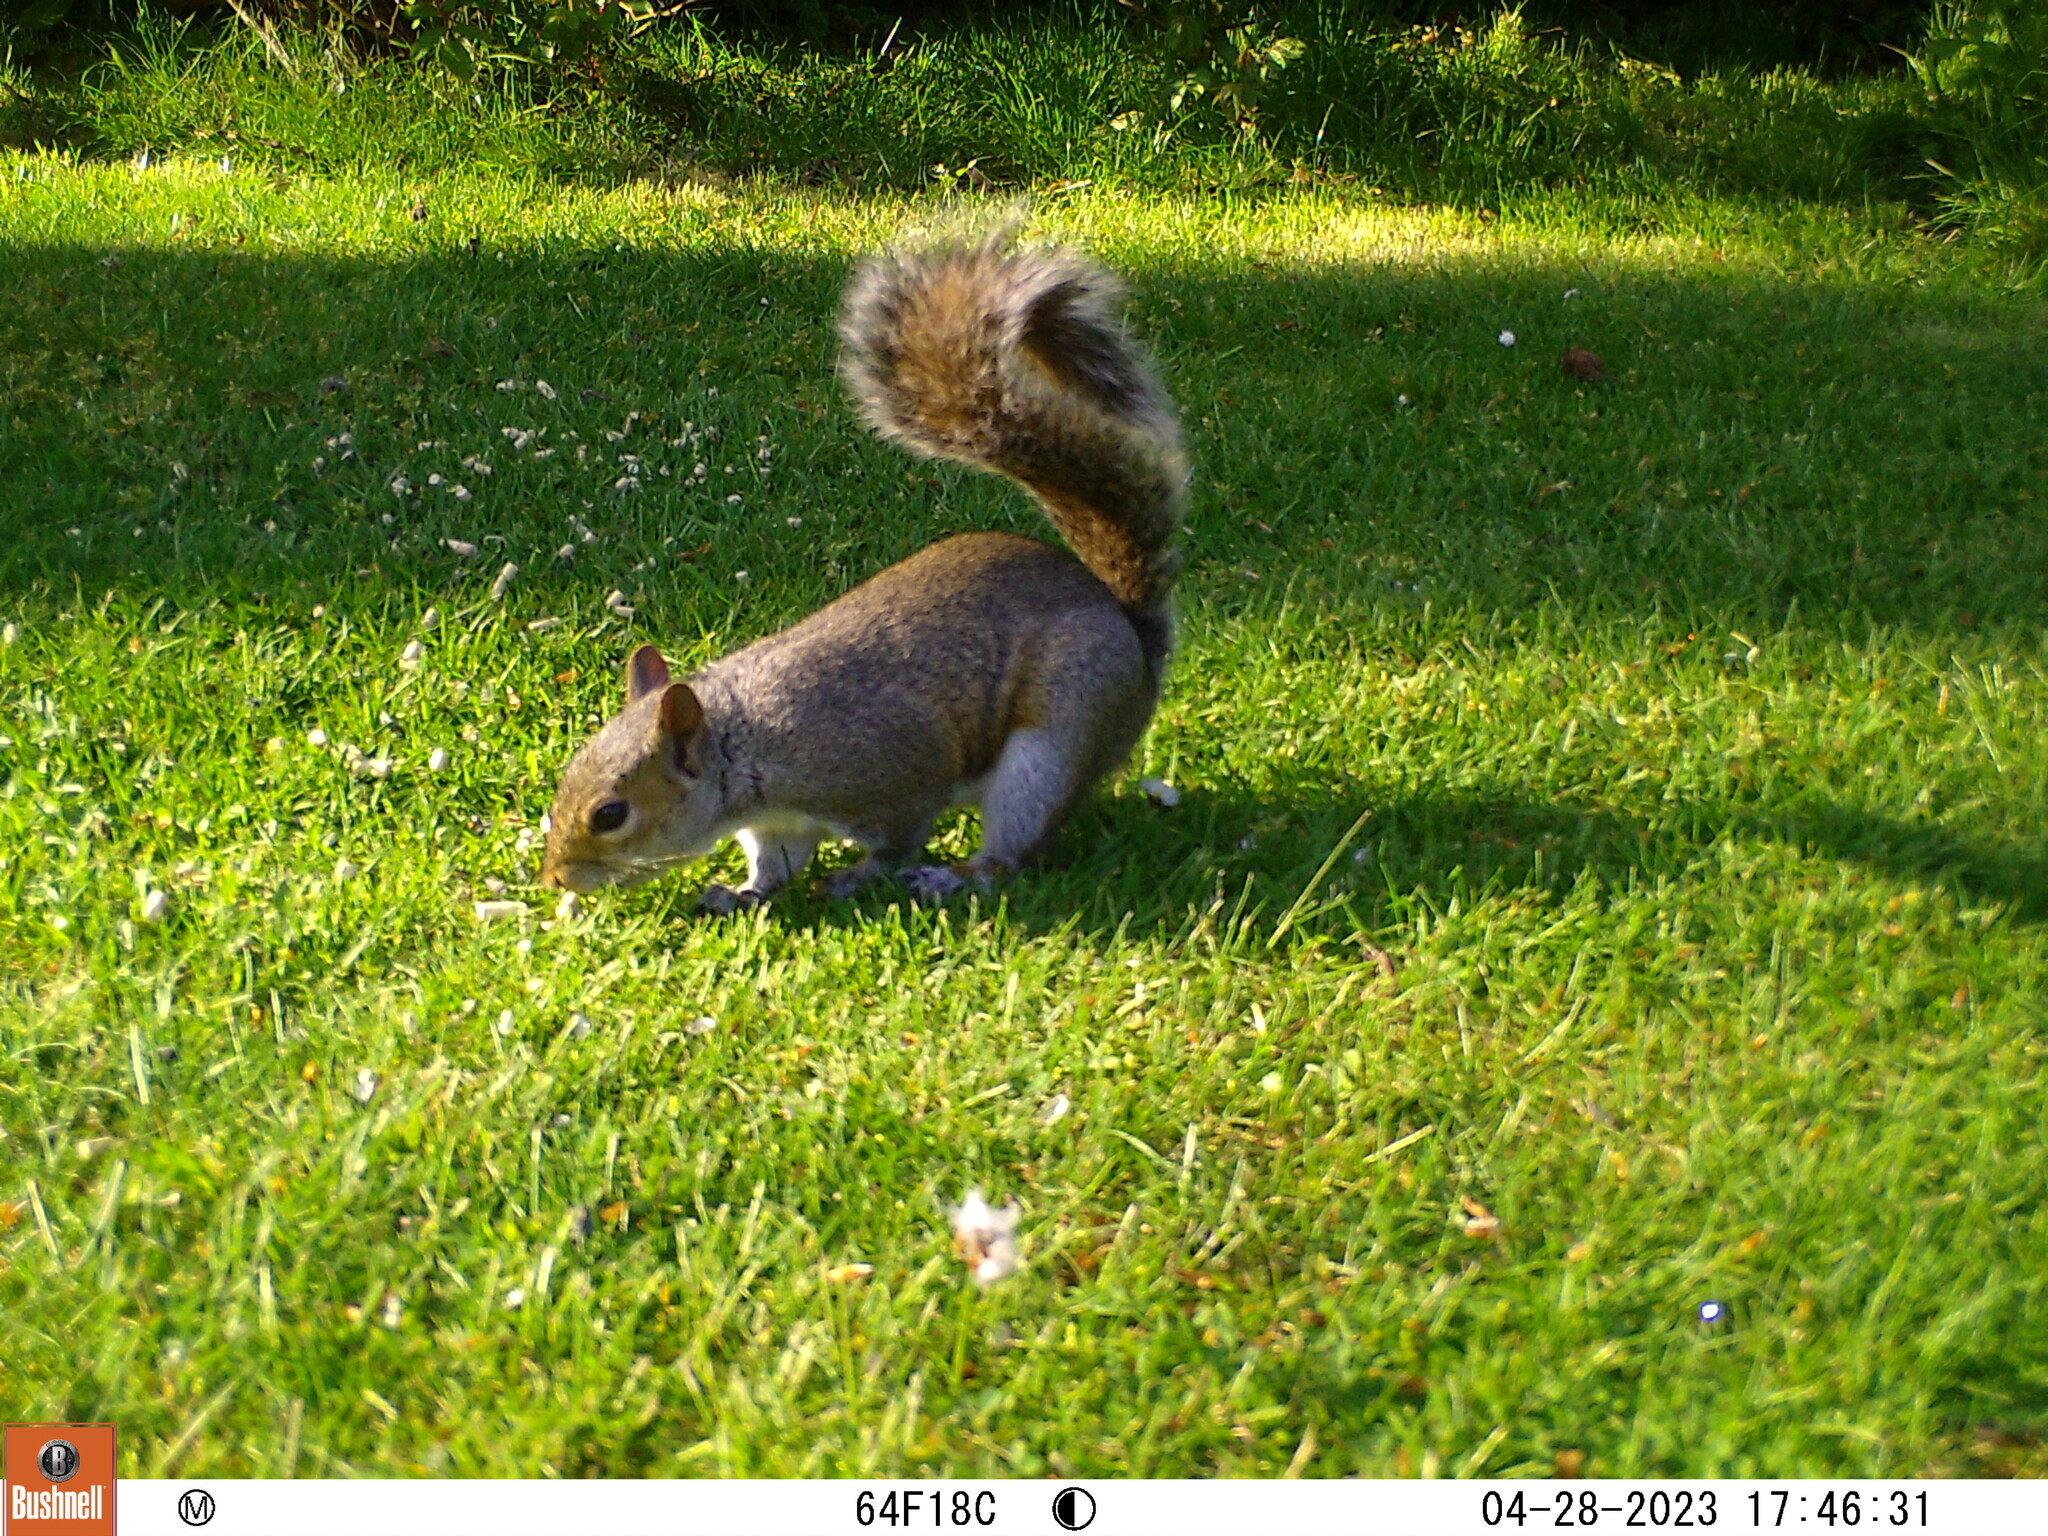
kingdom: Animalia
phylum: Chordata
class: Mammalia
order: Rodentia
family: Sciuridae
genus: Sciurus
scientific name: Sciurus carolinensis
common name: Eastern gray squirrel
